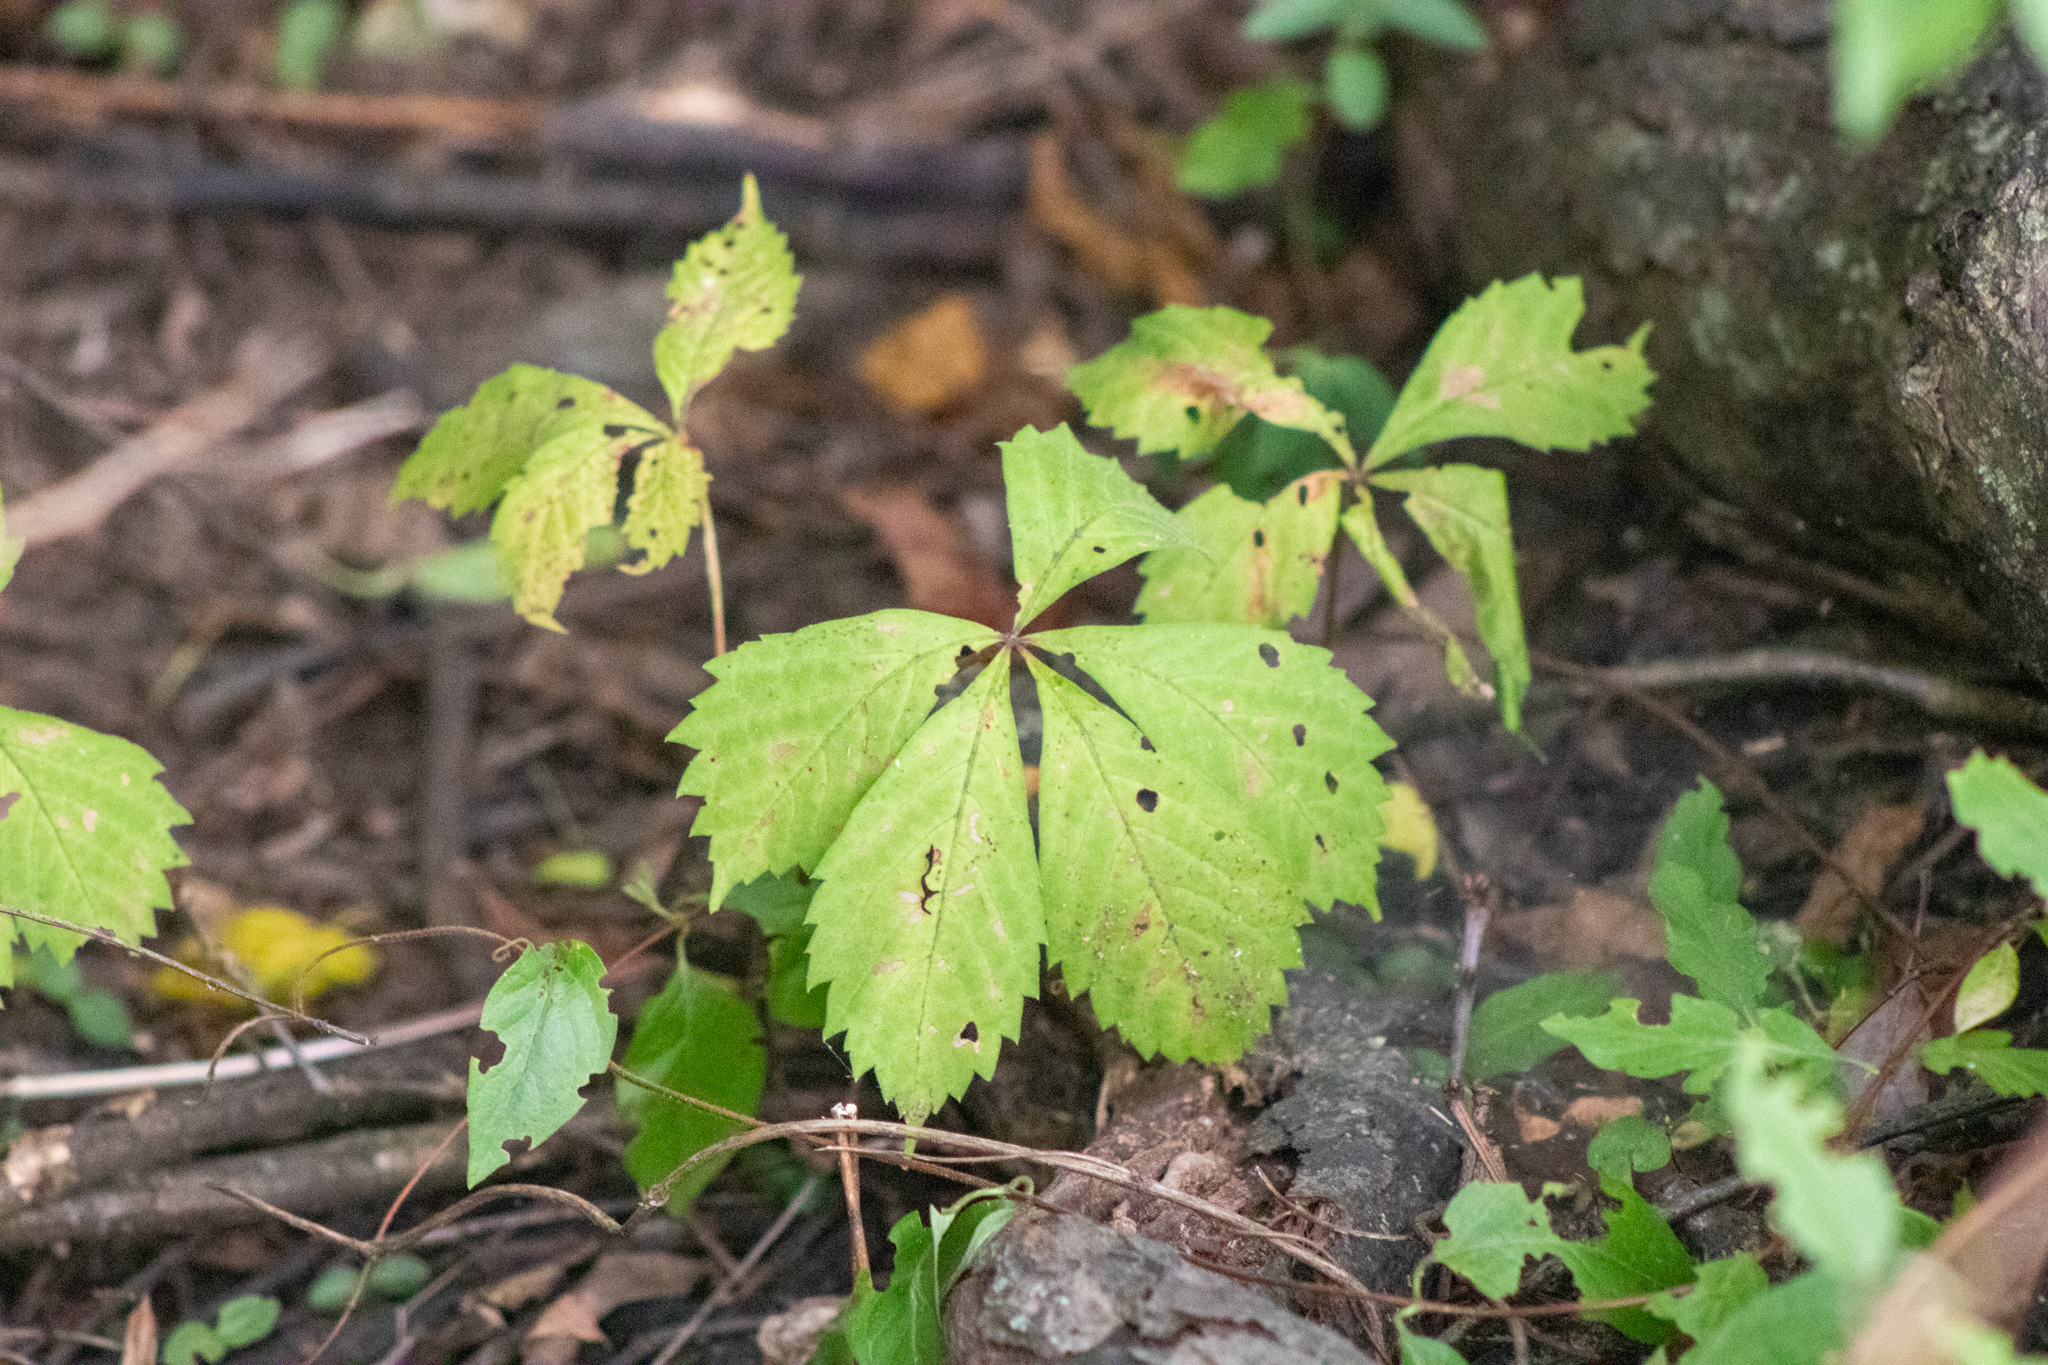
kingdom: Plantae
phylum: Tracheophyta
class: Magnoliopsida
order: Vitales
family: Vitaceae
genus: Parthenocissus
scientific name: Parthenocissus quinquefolia
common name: Virginia-creeper
